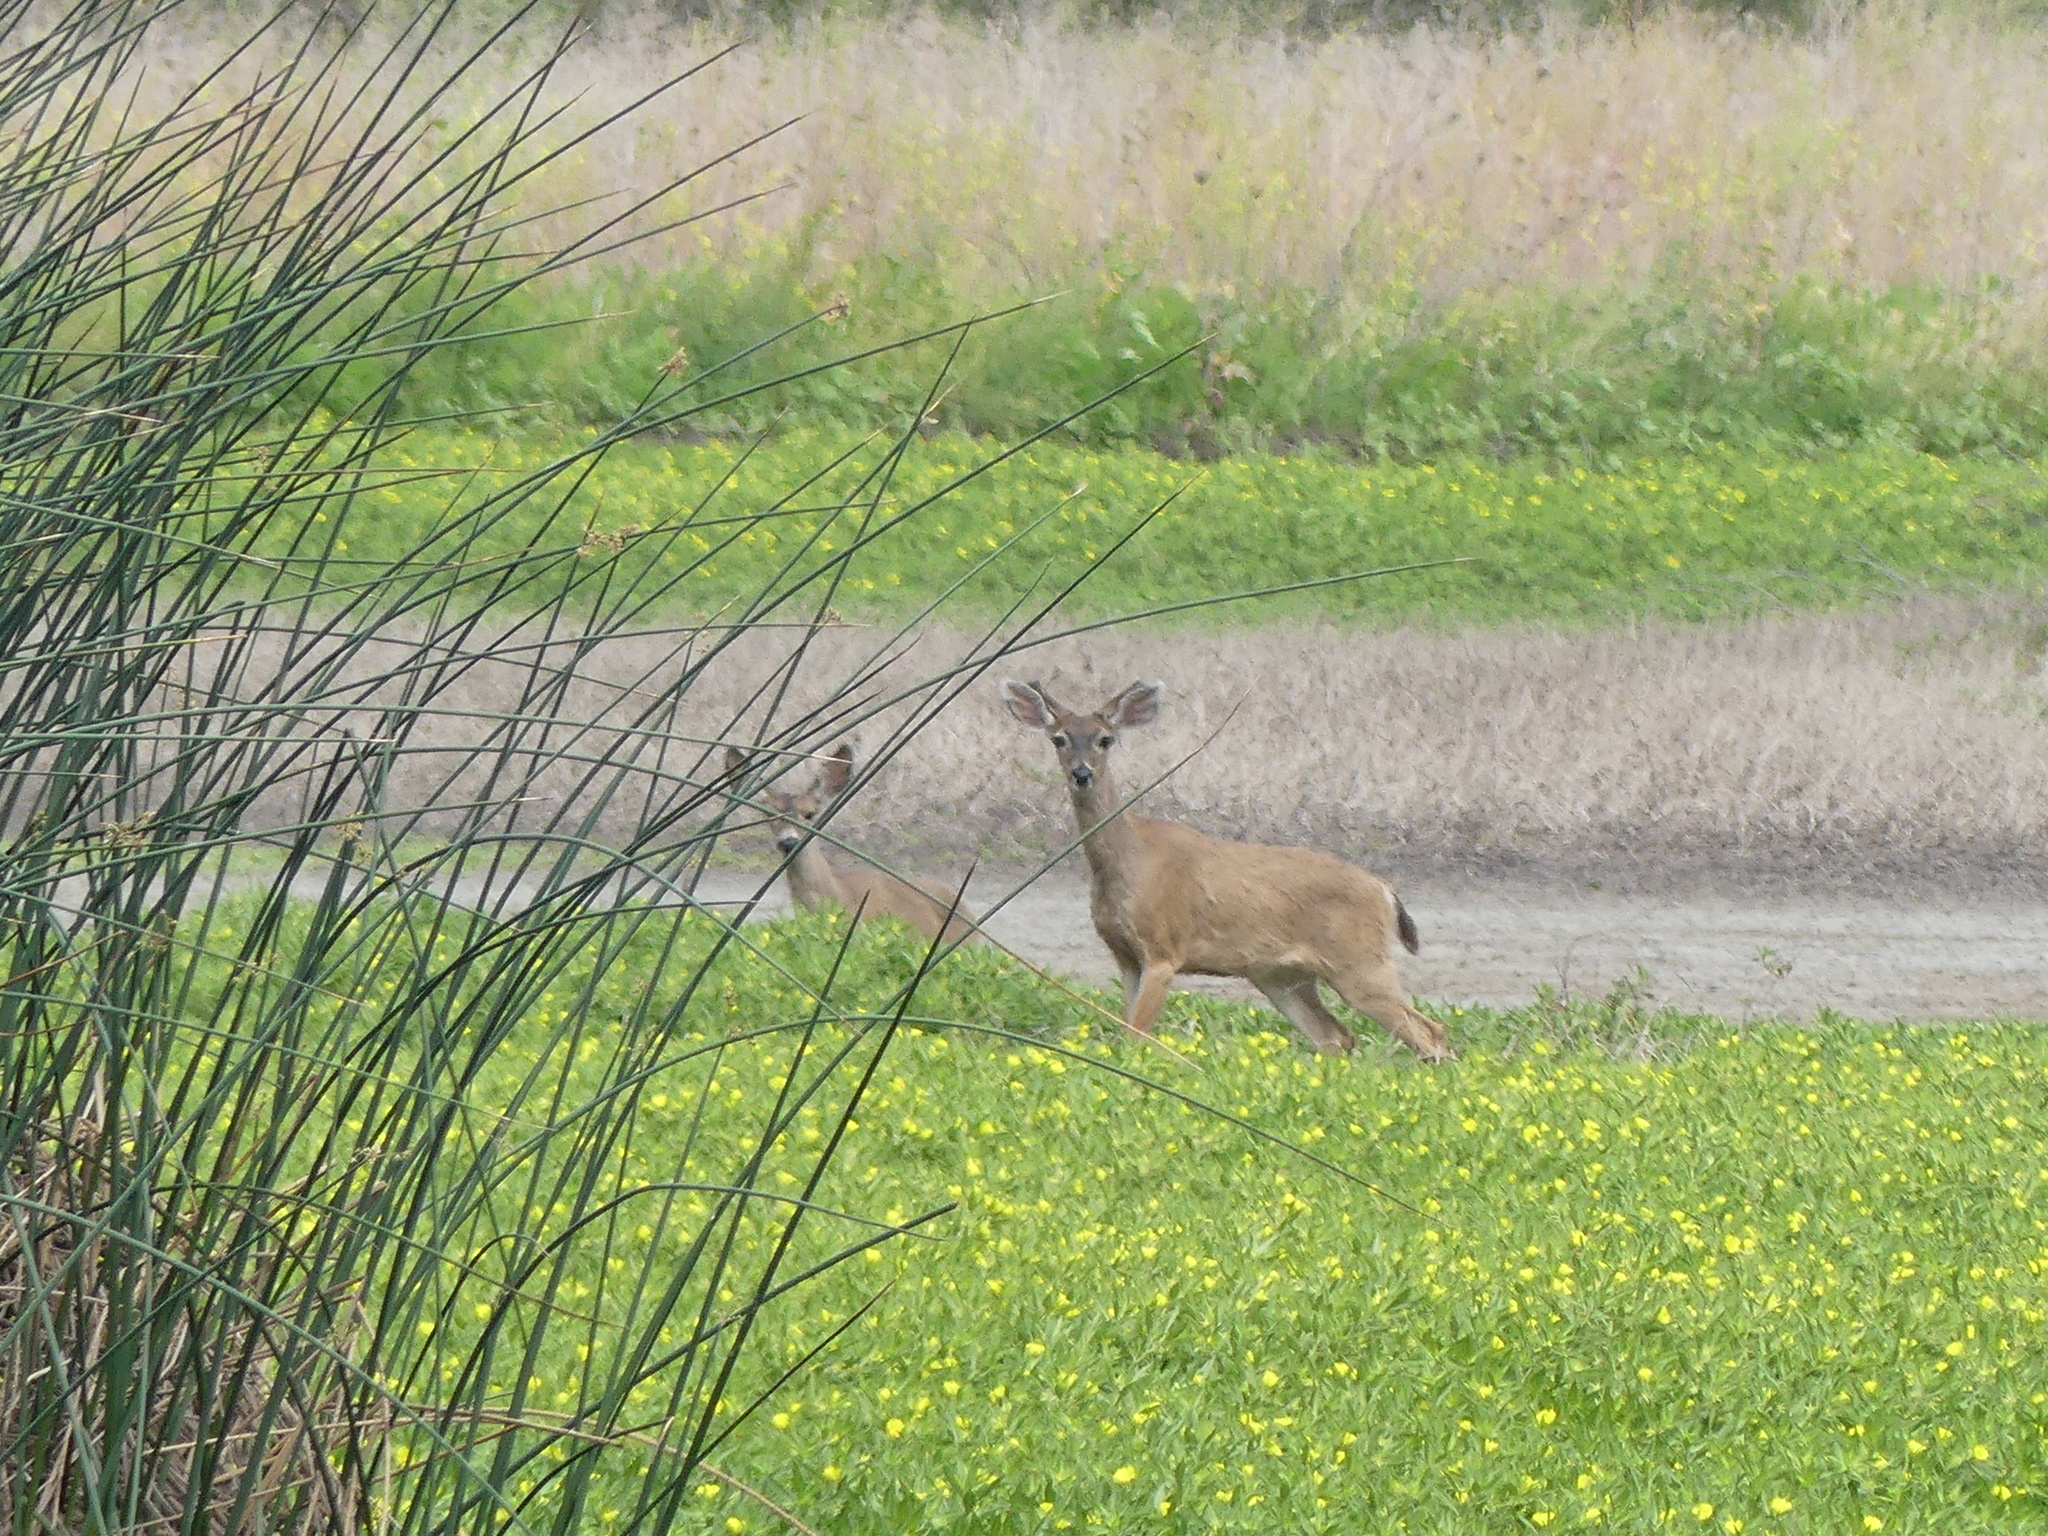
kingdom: Animalia
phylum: Chordata
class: Mammalia
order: Artiodactyla
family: Cervidae
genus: Odocoileus
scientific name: Odocoileus hemionus
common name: Mule deer
